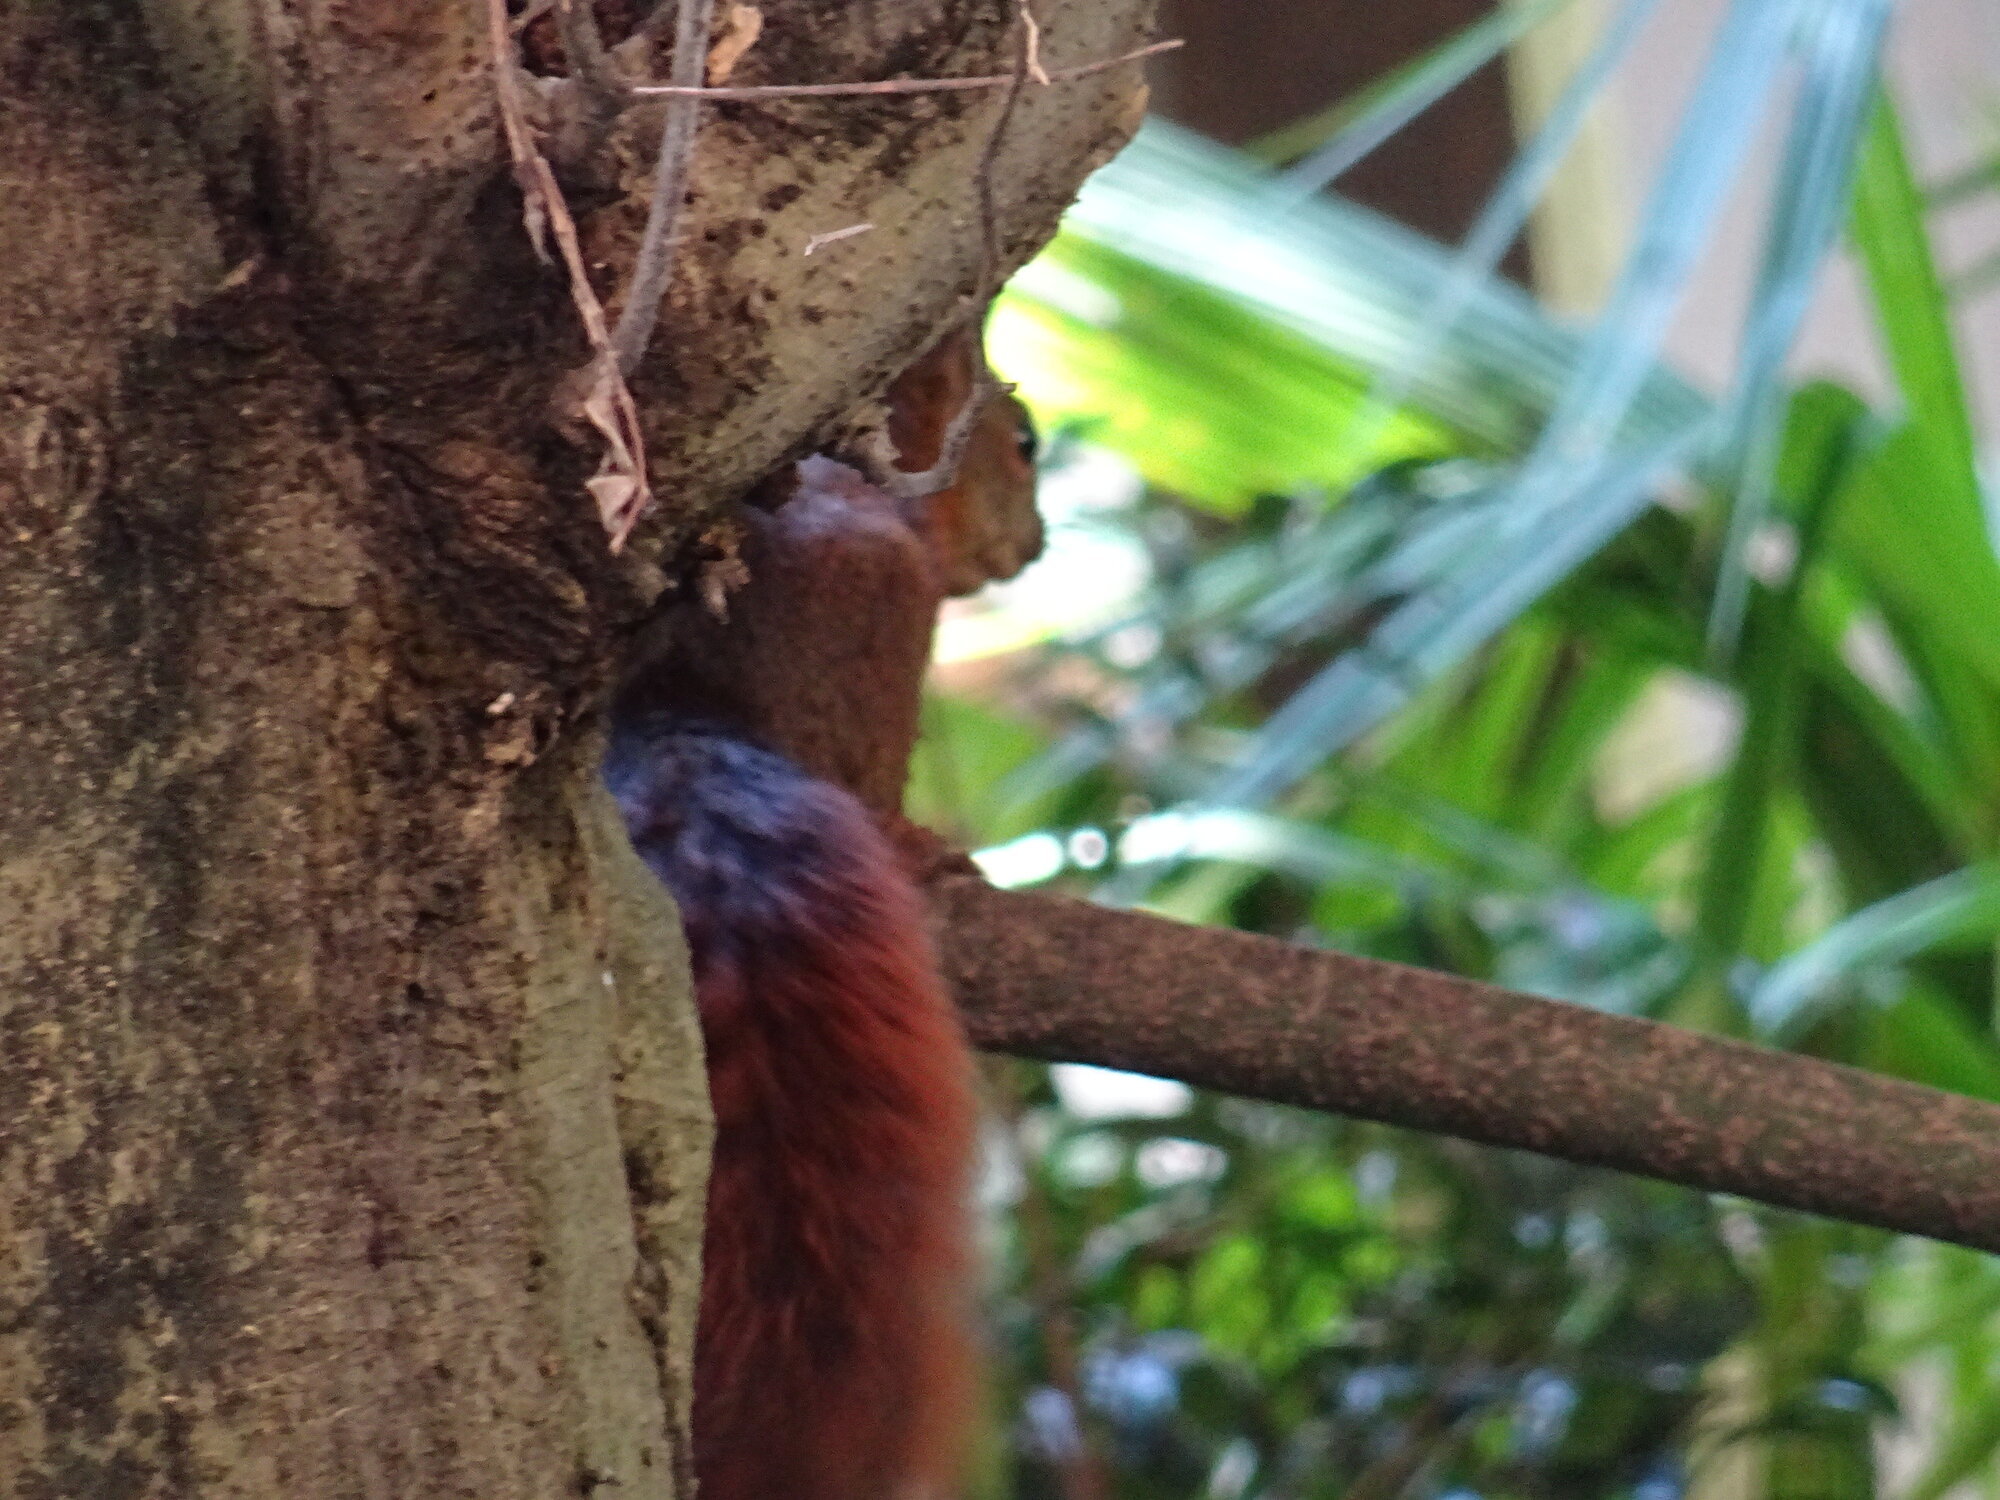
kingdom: Animalia
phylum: Chordata
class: Mammalia
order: Rodentia
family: Sciuridae
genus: Sciurus
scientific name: Sciurus granatensis
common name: Red-tailed squirrel
